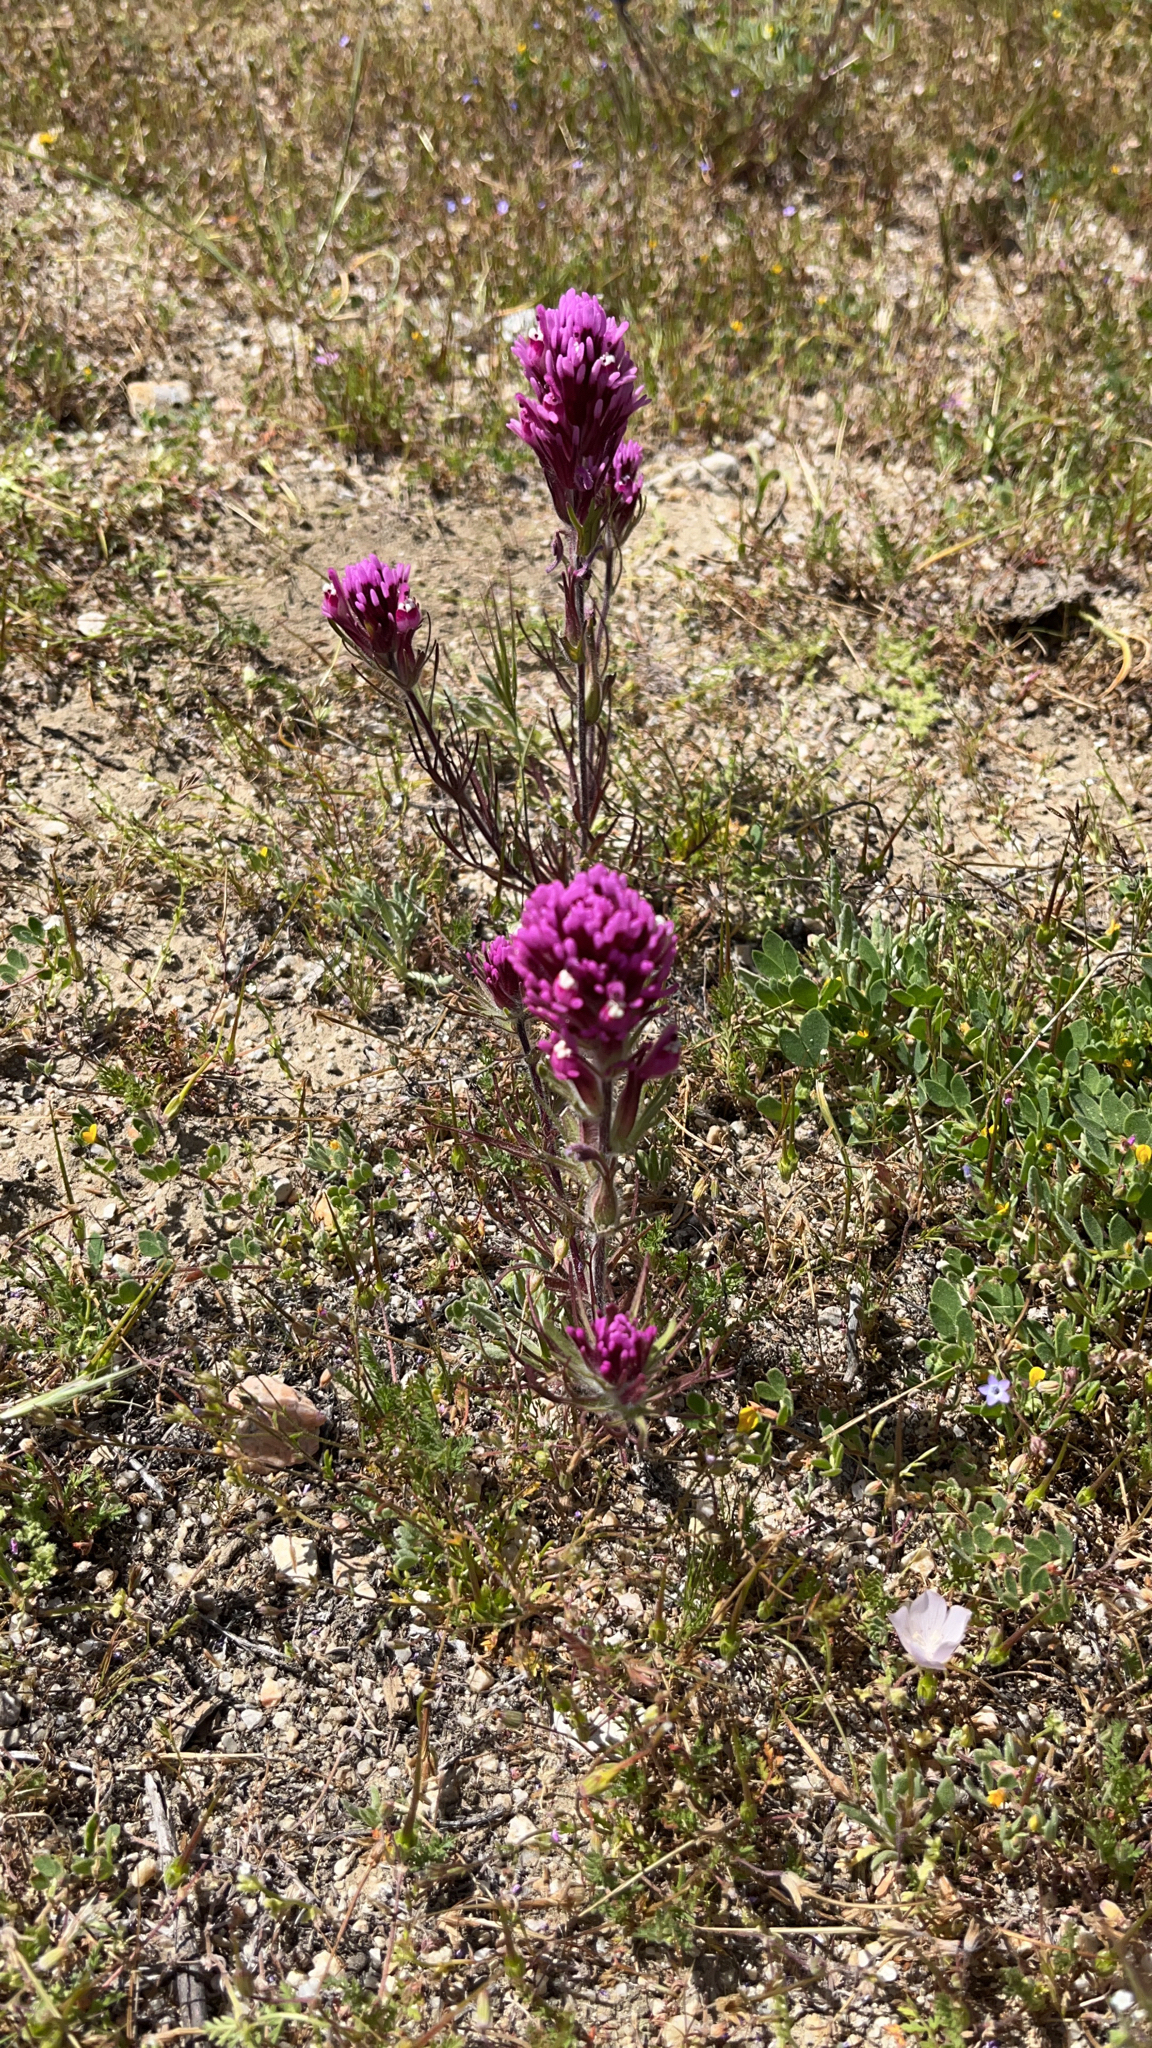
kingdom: Plantae
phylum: Tracheophyta
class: Magnoliopsida
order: Lamiales
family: Orobanchaceae
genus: Castilleja
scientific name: Castilleja exserta
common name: Purple owl-clover
